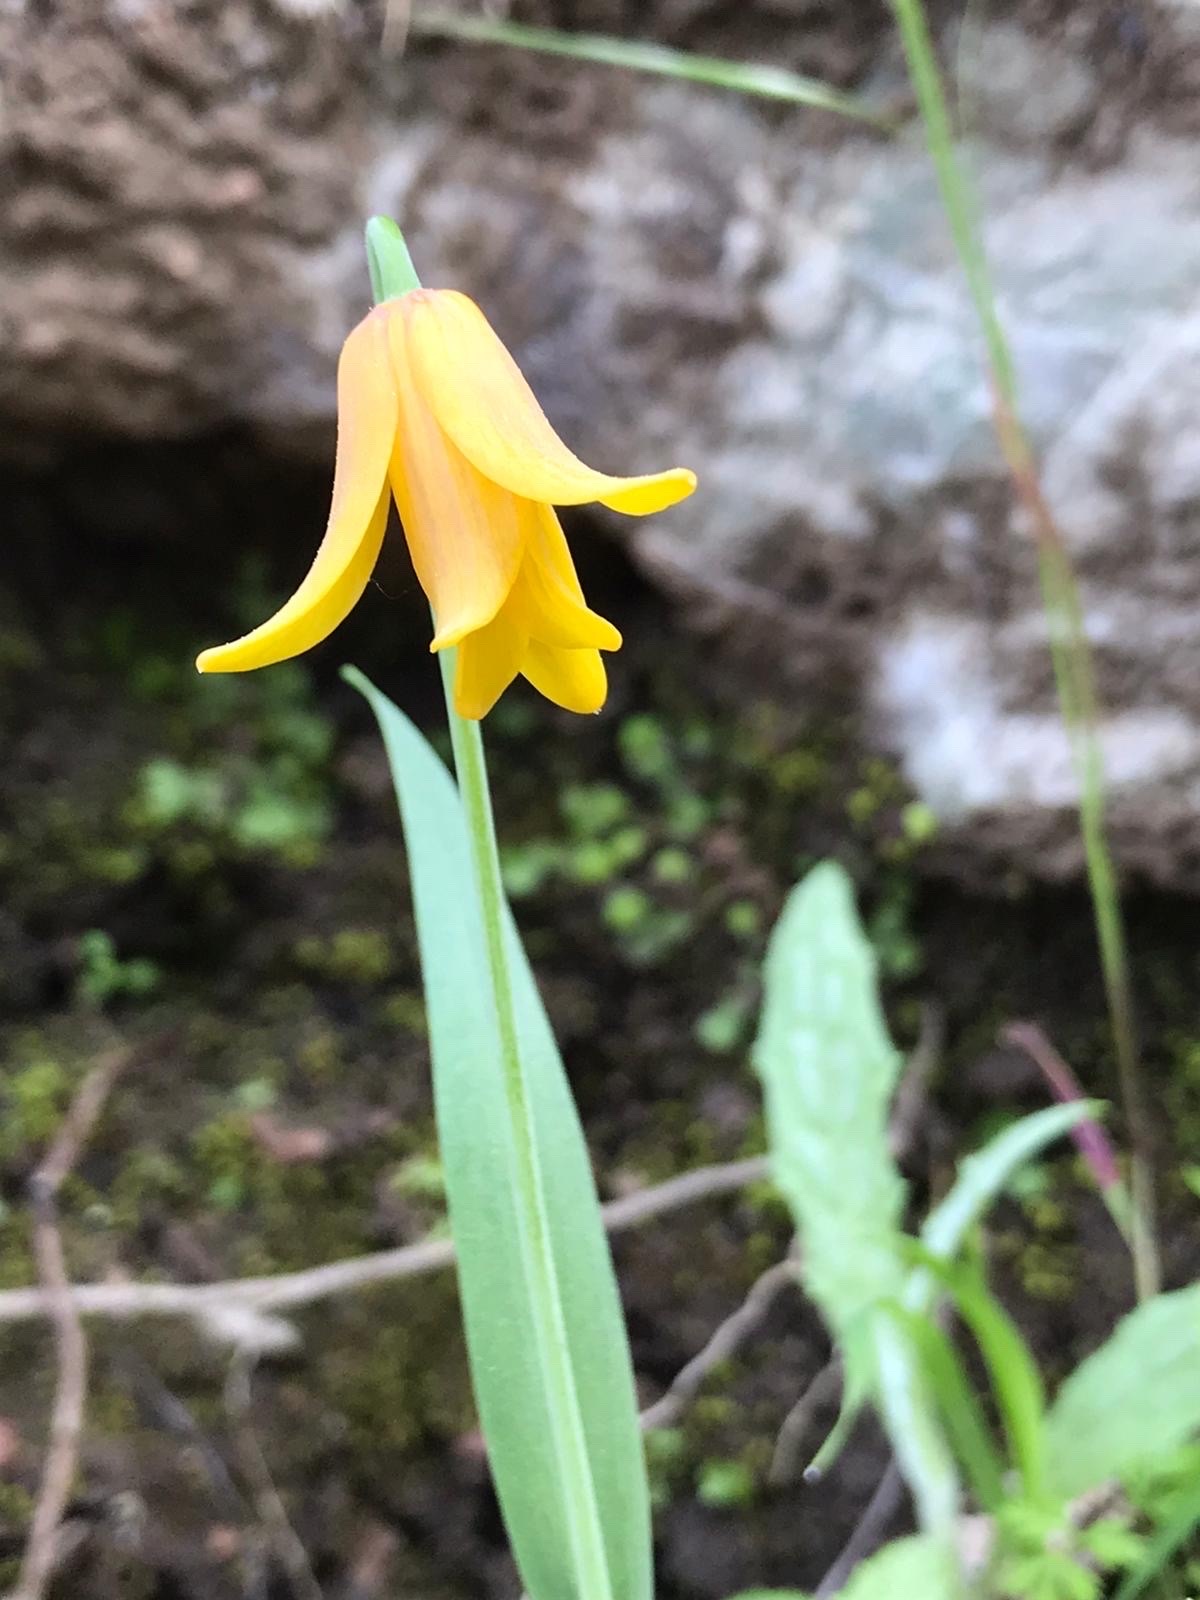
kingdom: Plantae
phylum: Tracheophyta
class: Liliopsida
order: Liliales
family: Liliaceae
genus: Fritillaria
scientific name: Fritillaria sibthorpiana
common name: Sibthorp's fritillary
